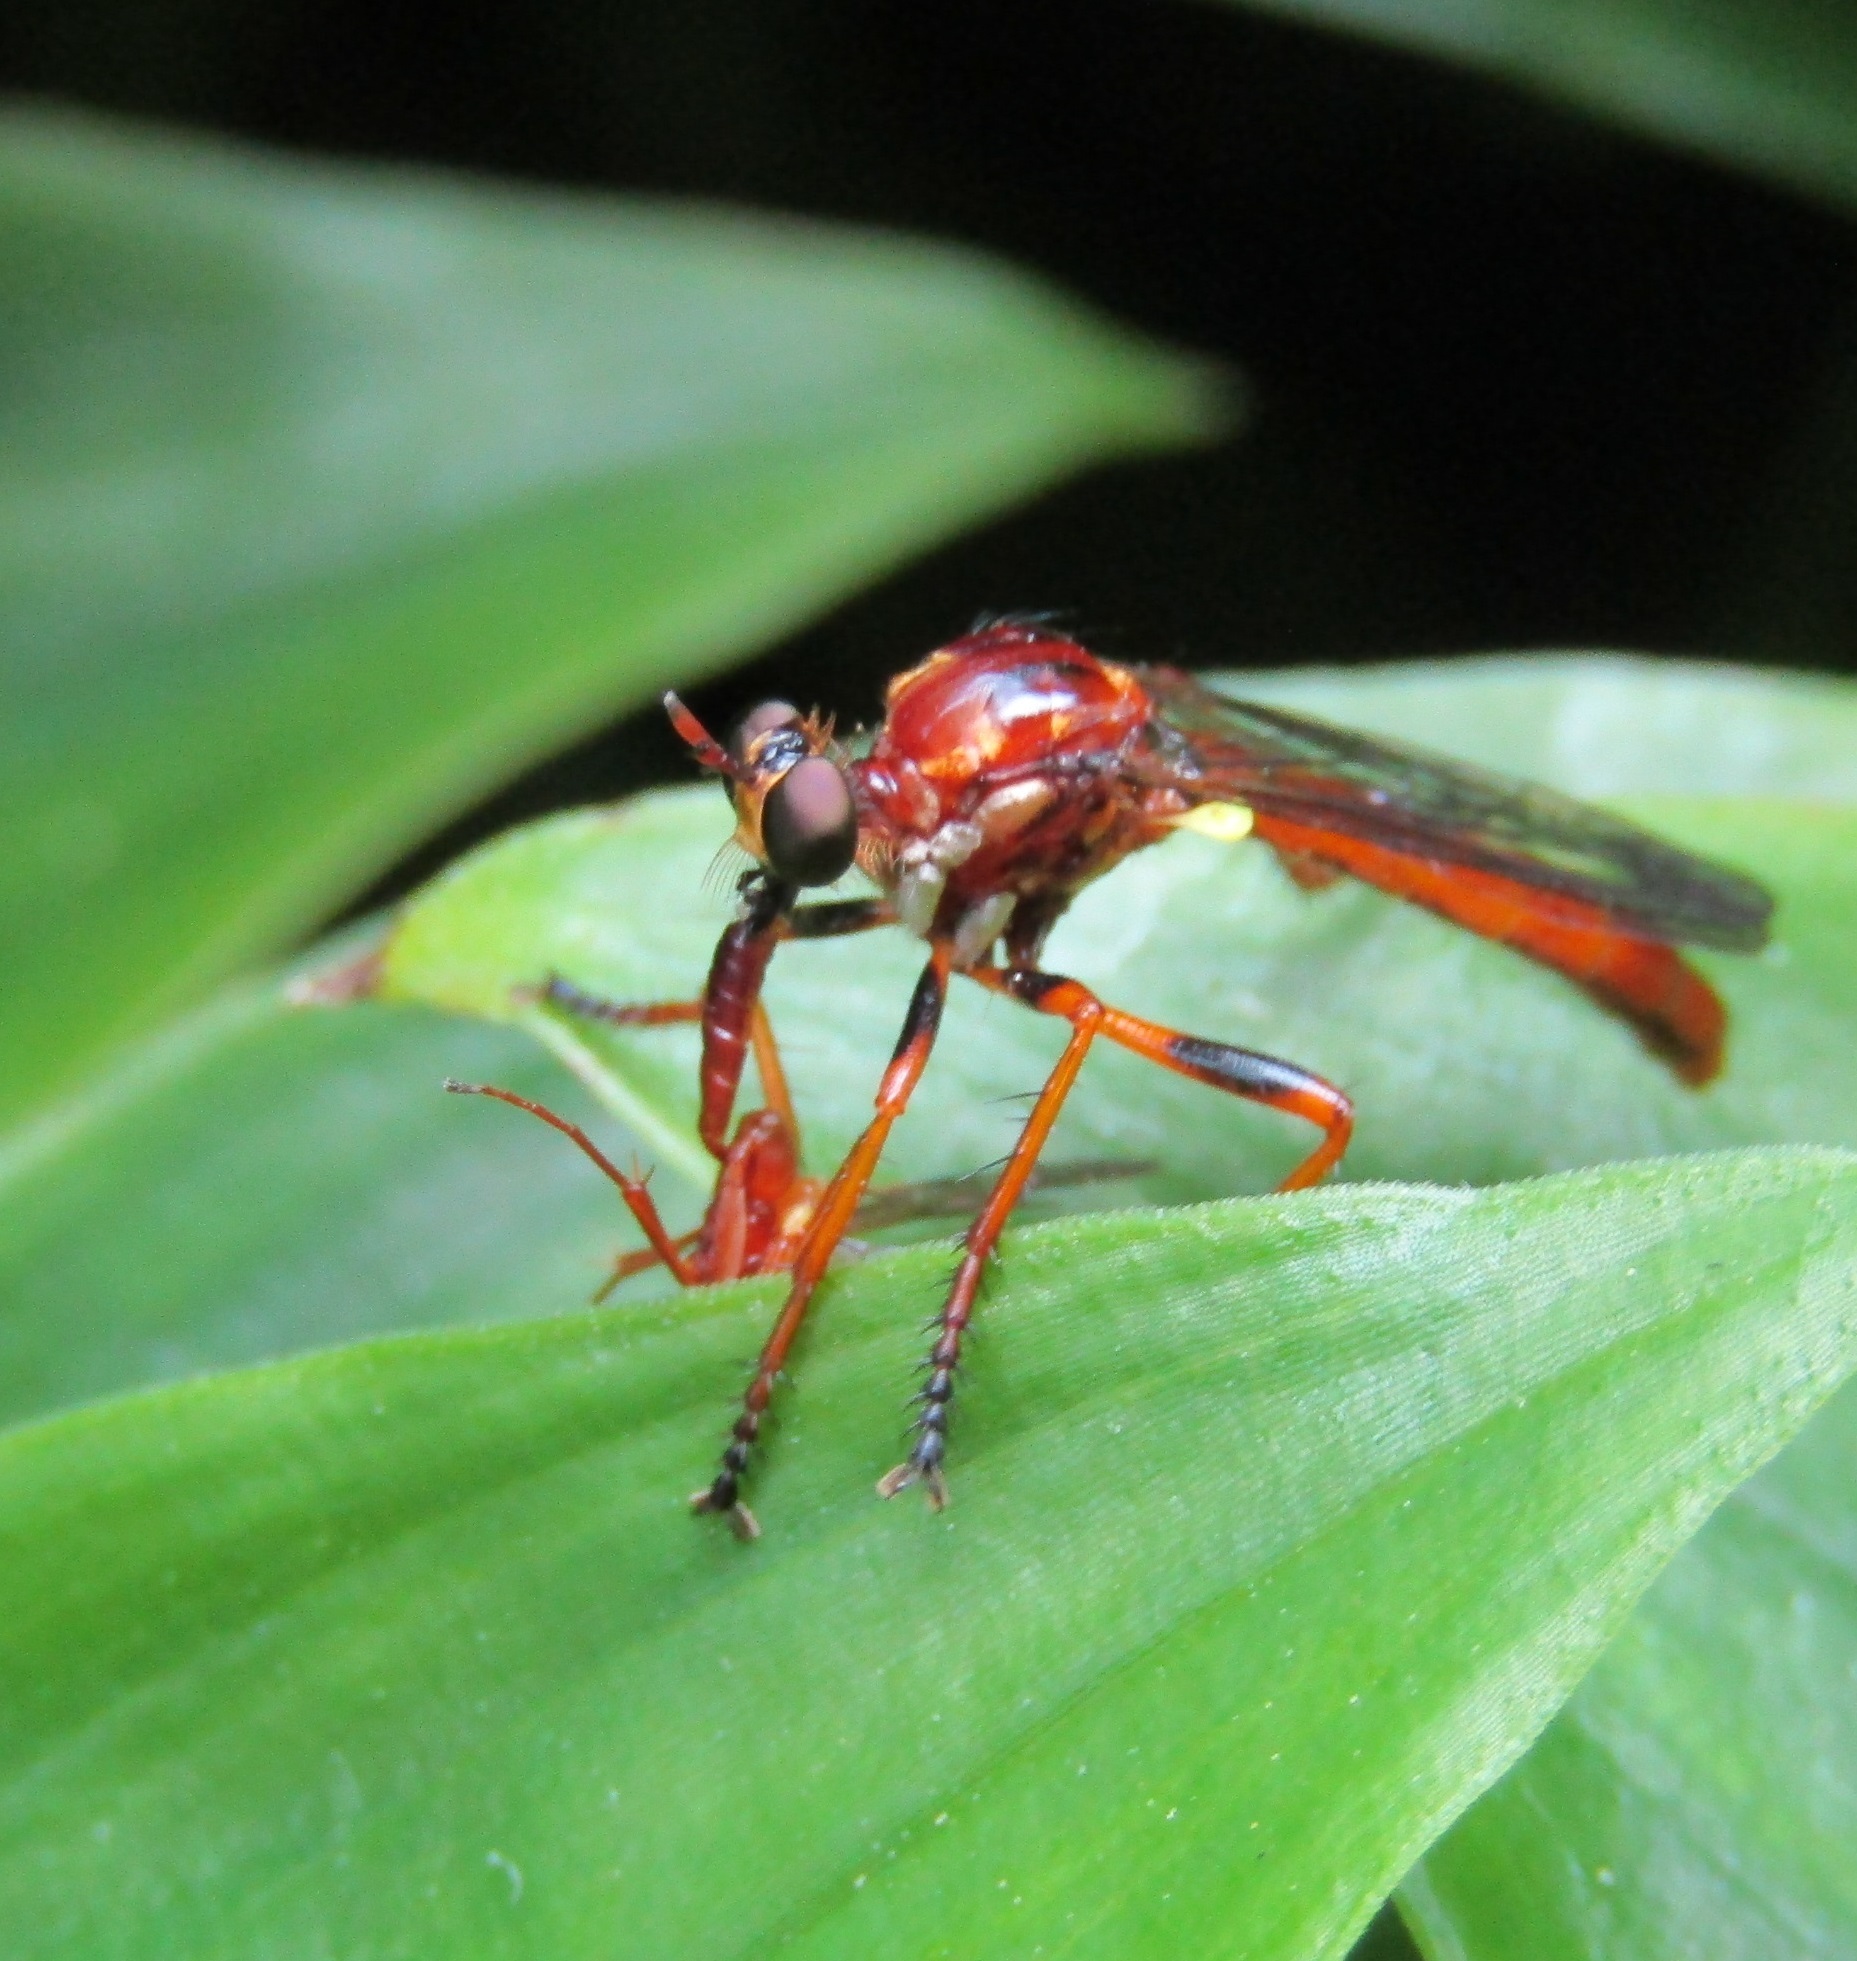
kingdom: Animalia
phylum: Arthropoda
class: Insecta
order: Diptera
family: Asilidae
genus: Saropogon
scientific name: Saropogon antipodus
